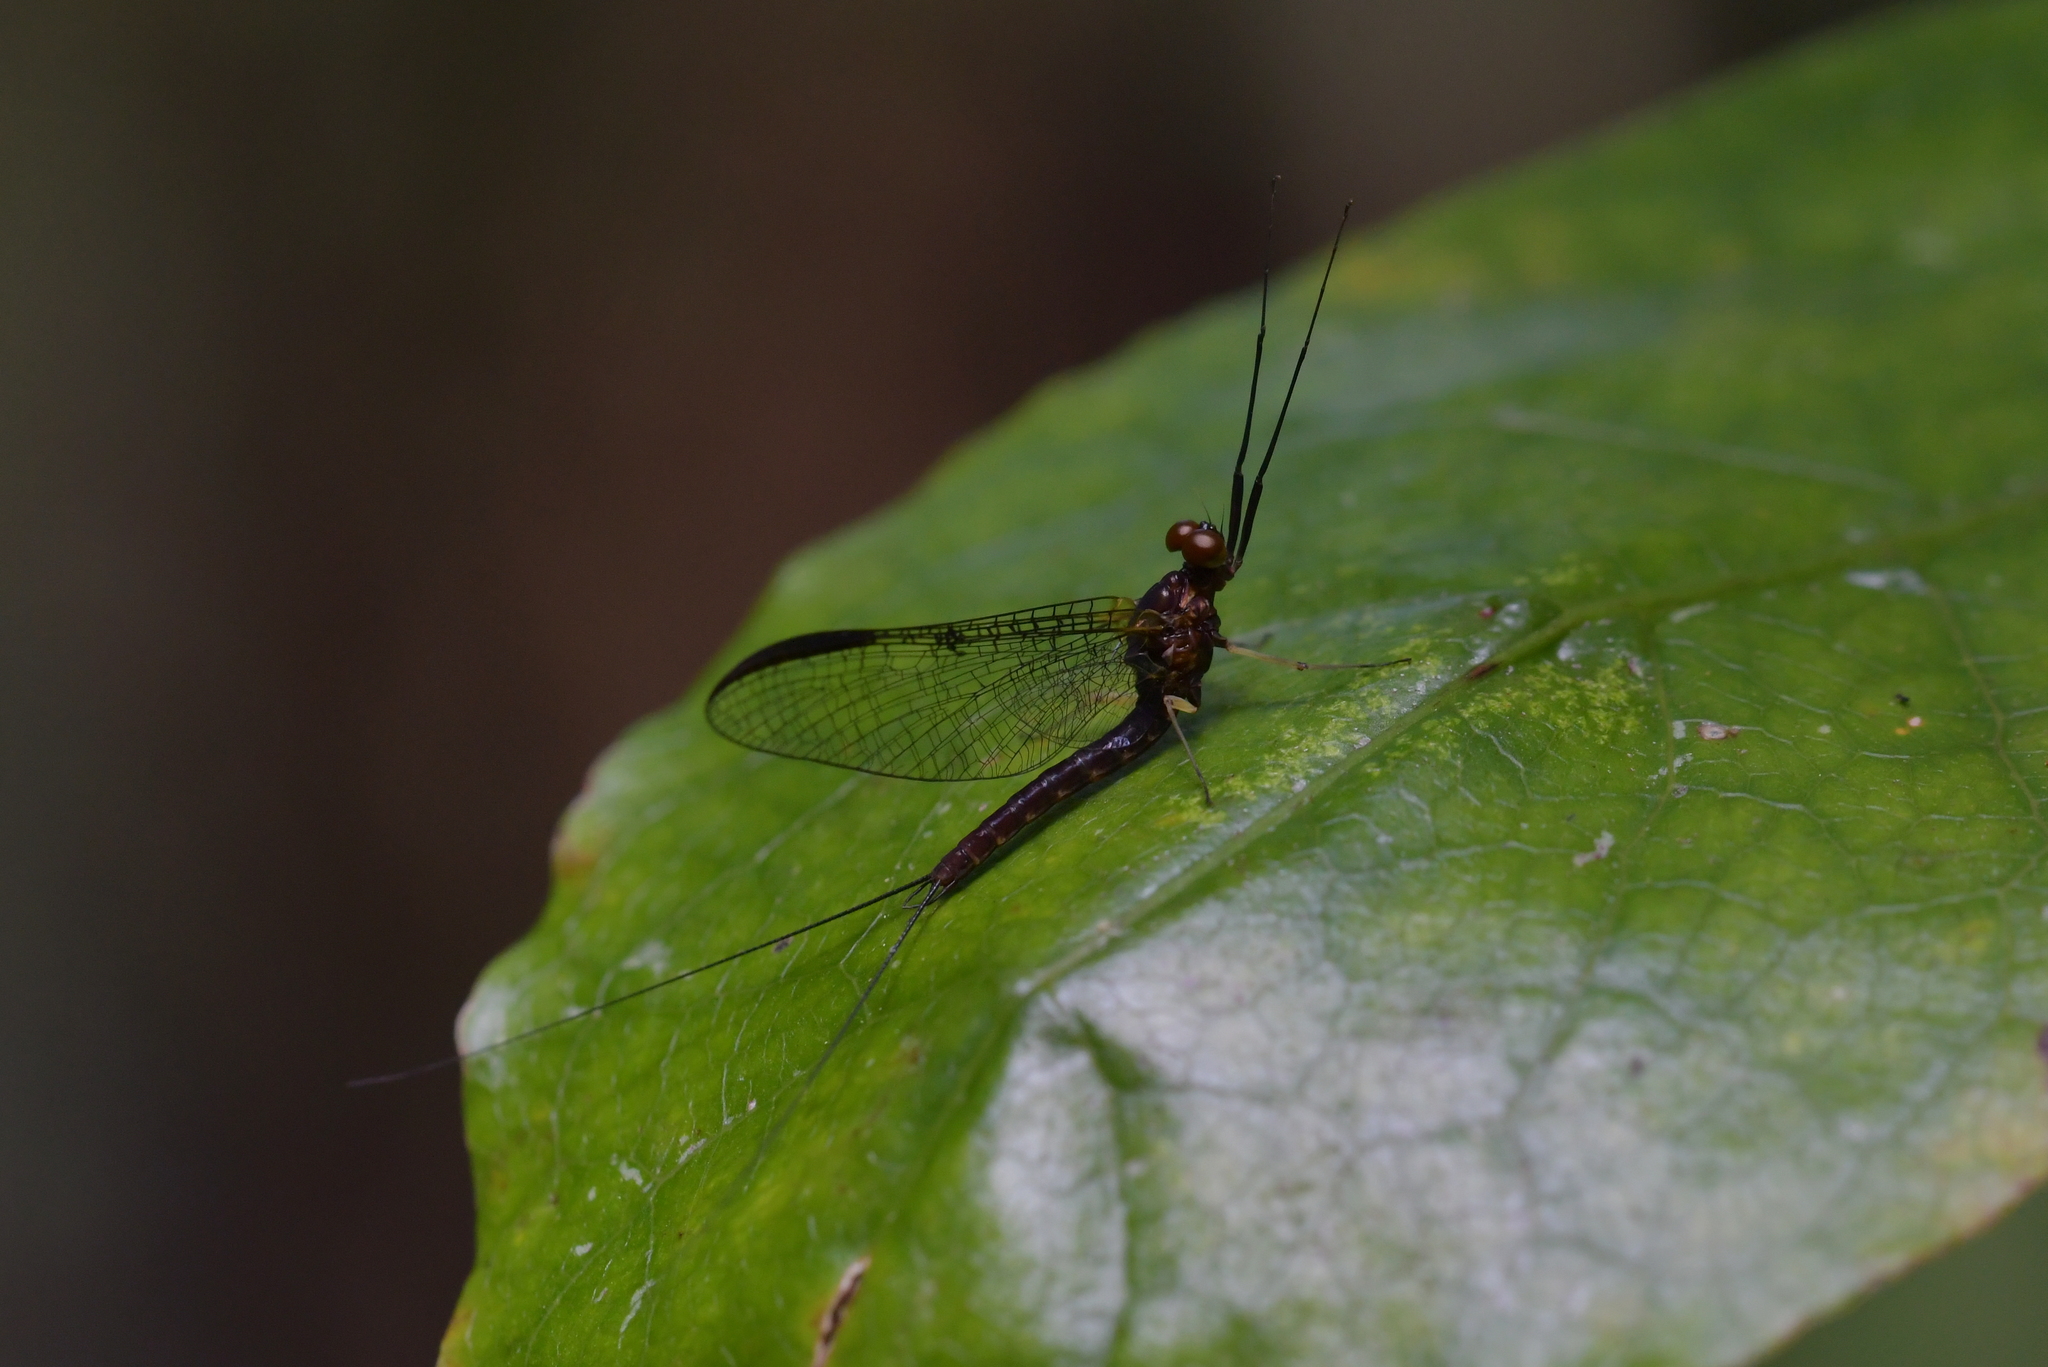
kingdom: Animalia
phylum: Arthropoda
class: Insecta
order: Ephemeroptera
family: Coloburiscidae
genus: Coloburiscus
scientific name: Coloburiscus humeralis
